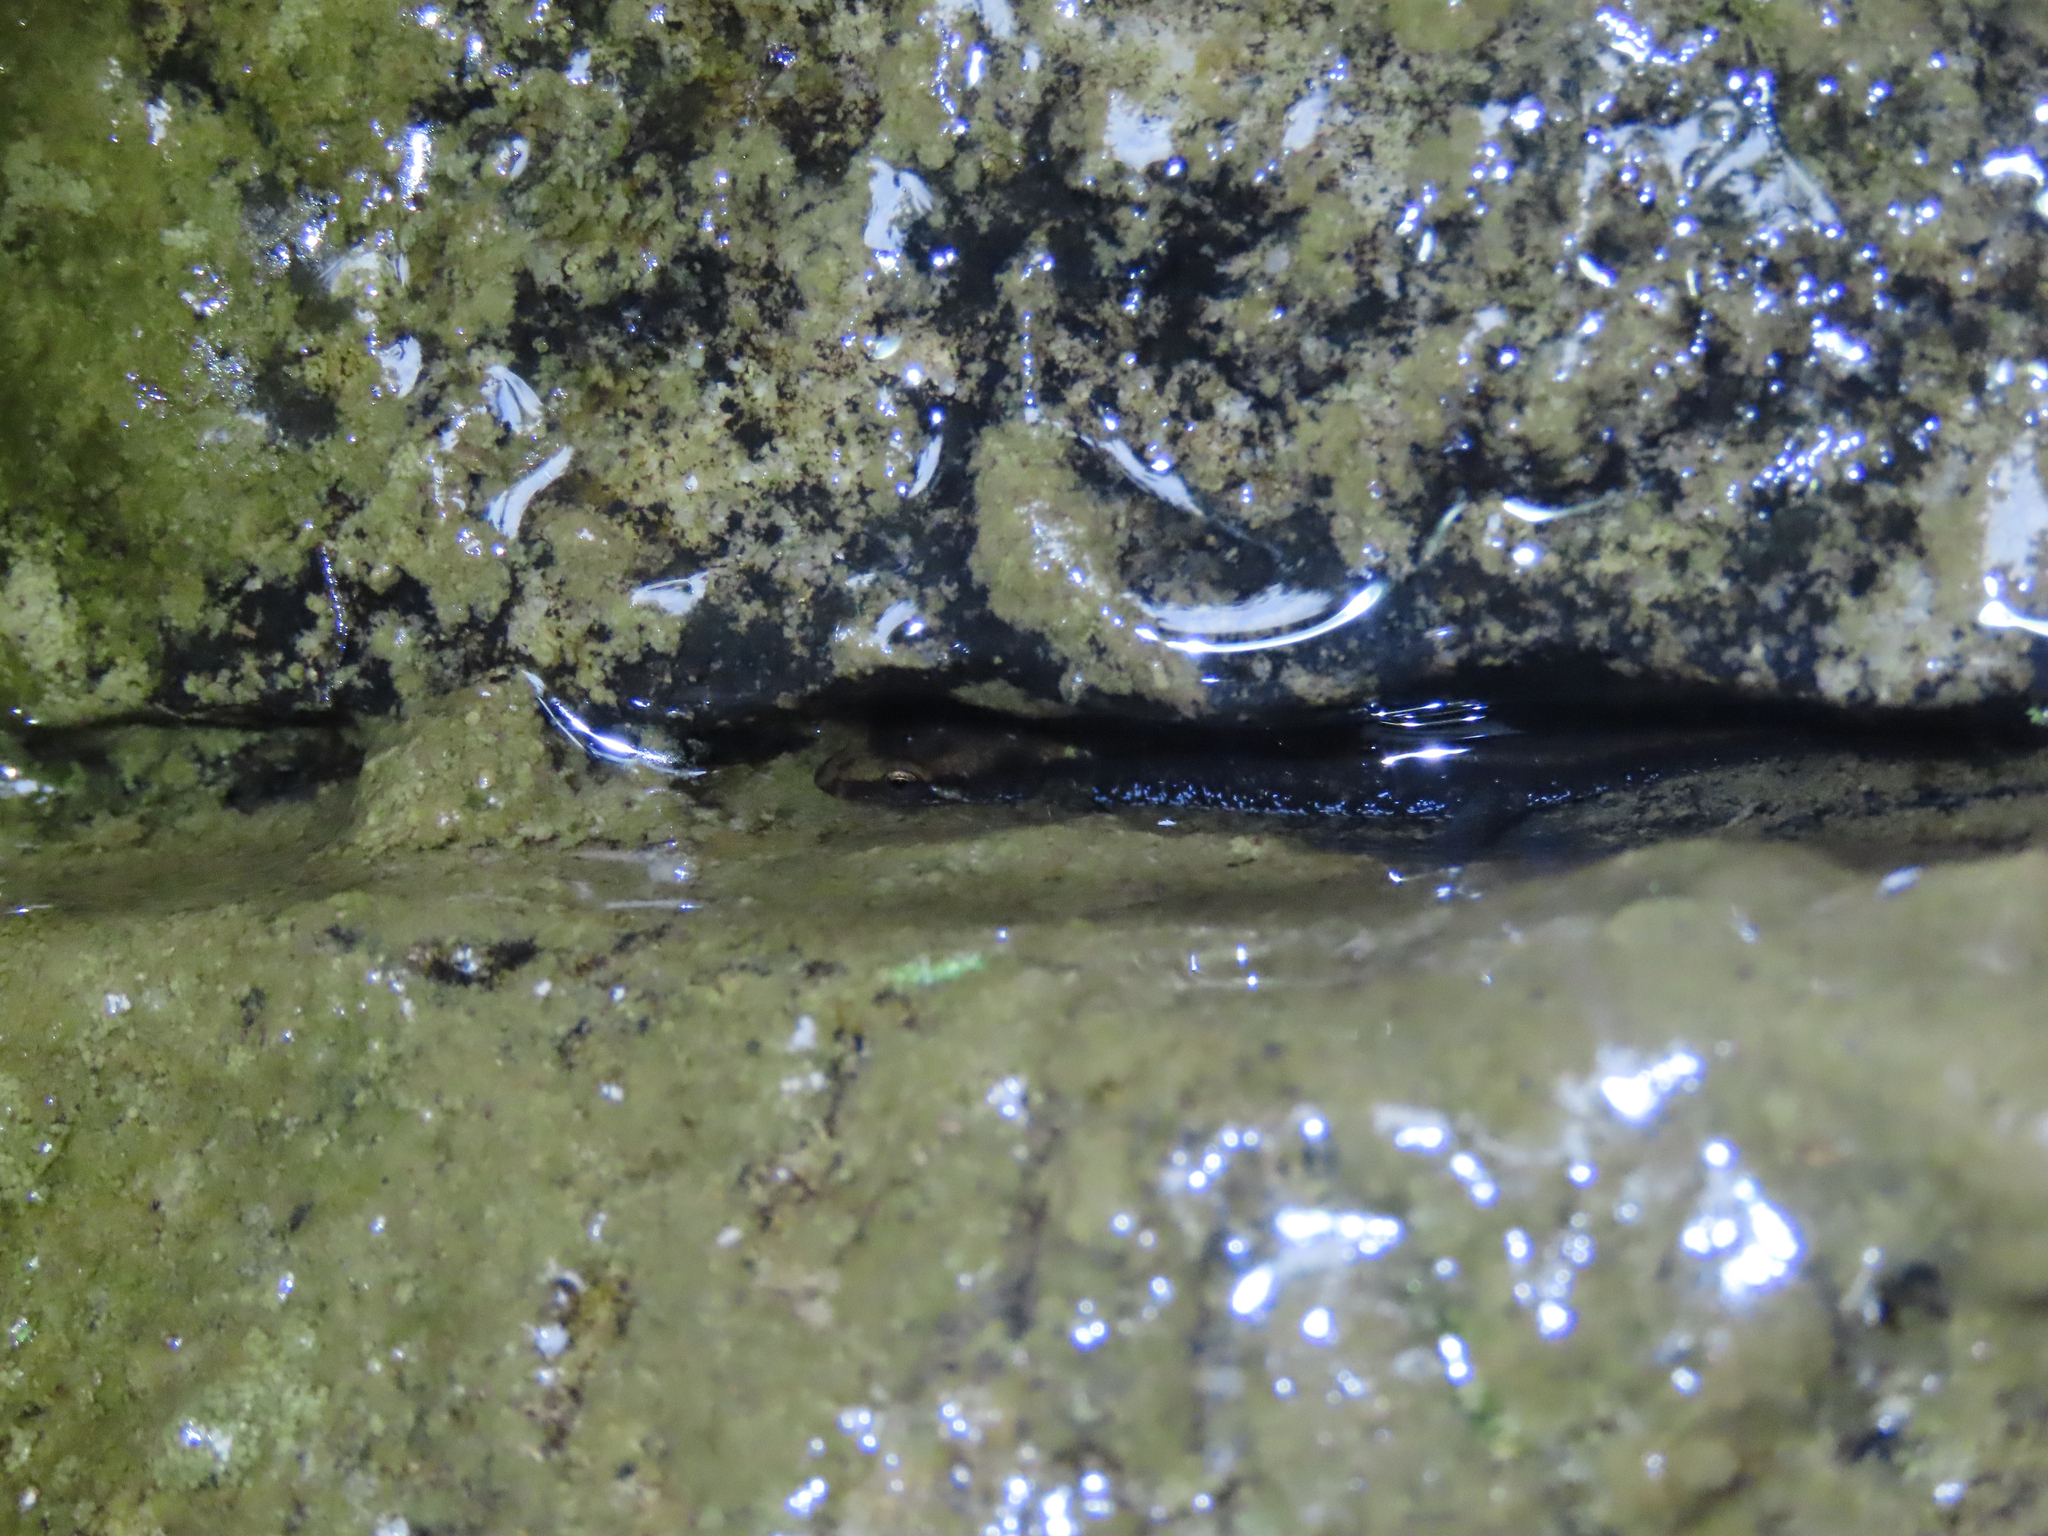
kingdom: Animalia
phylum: Chordata
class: Amphibia
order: Caudata
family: Plethodontidae
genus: Desmognathus
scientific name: Desmognathus ochrophaeus
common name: Allegheny mountain dusky salamander
